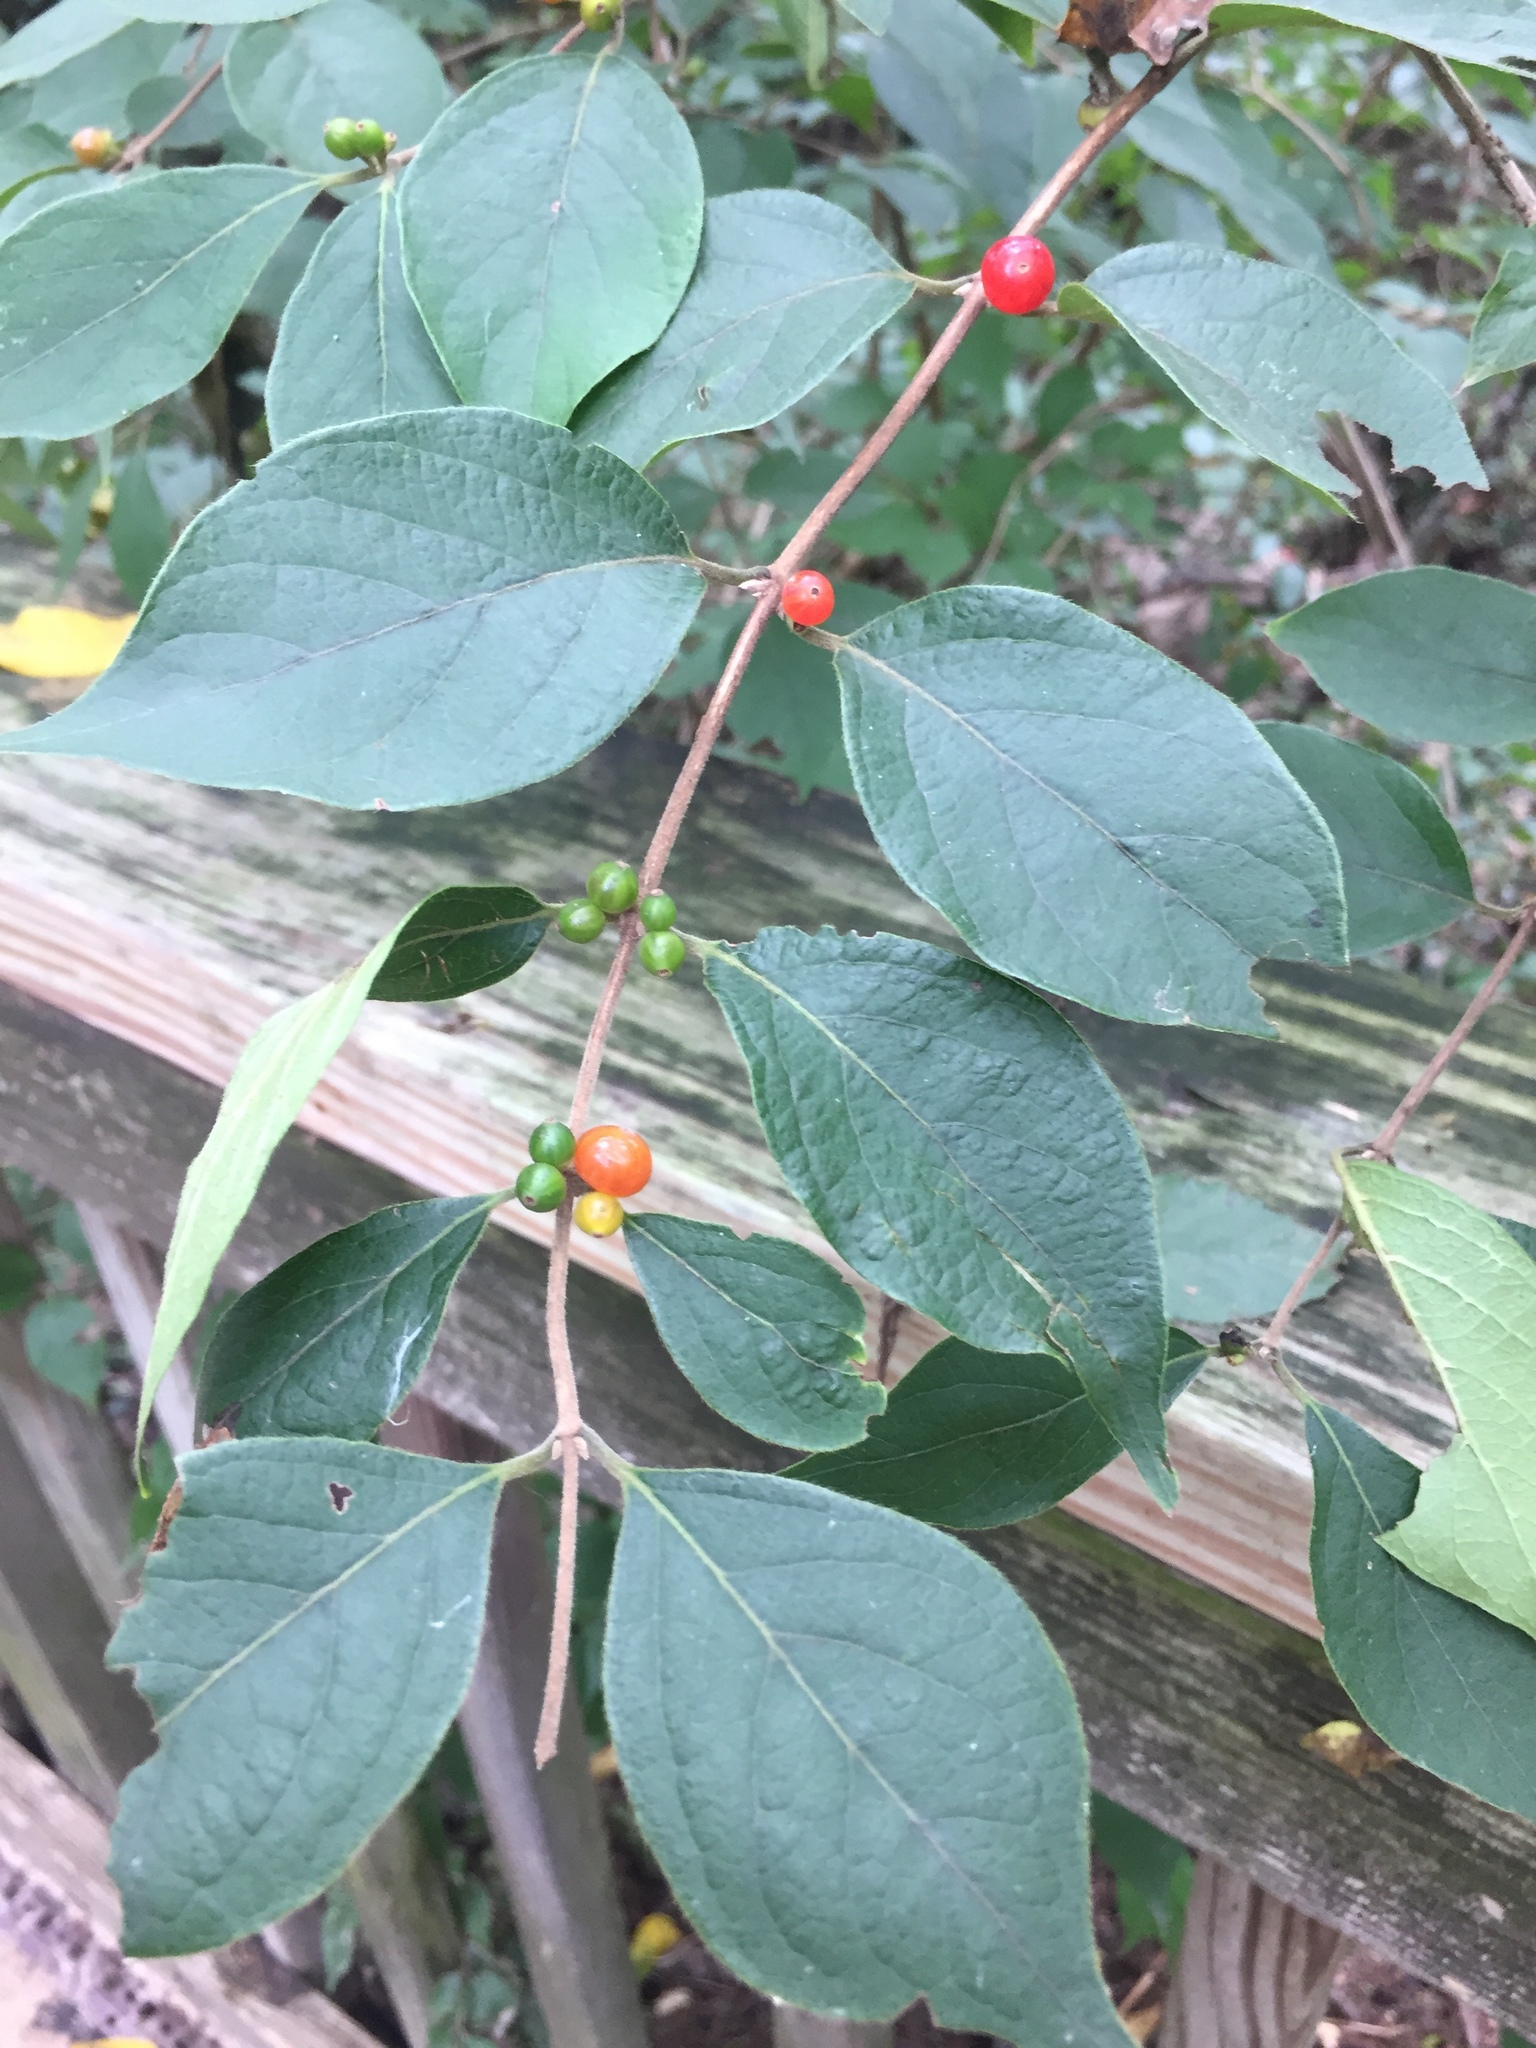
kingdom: Plantae
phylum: Tracheophyta
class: Magnoliopsida
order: Dipsacales
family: Caprifoliaceae
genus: Lonicera
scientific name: Lonicera maackii
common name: Amur honeysuckle
